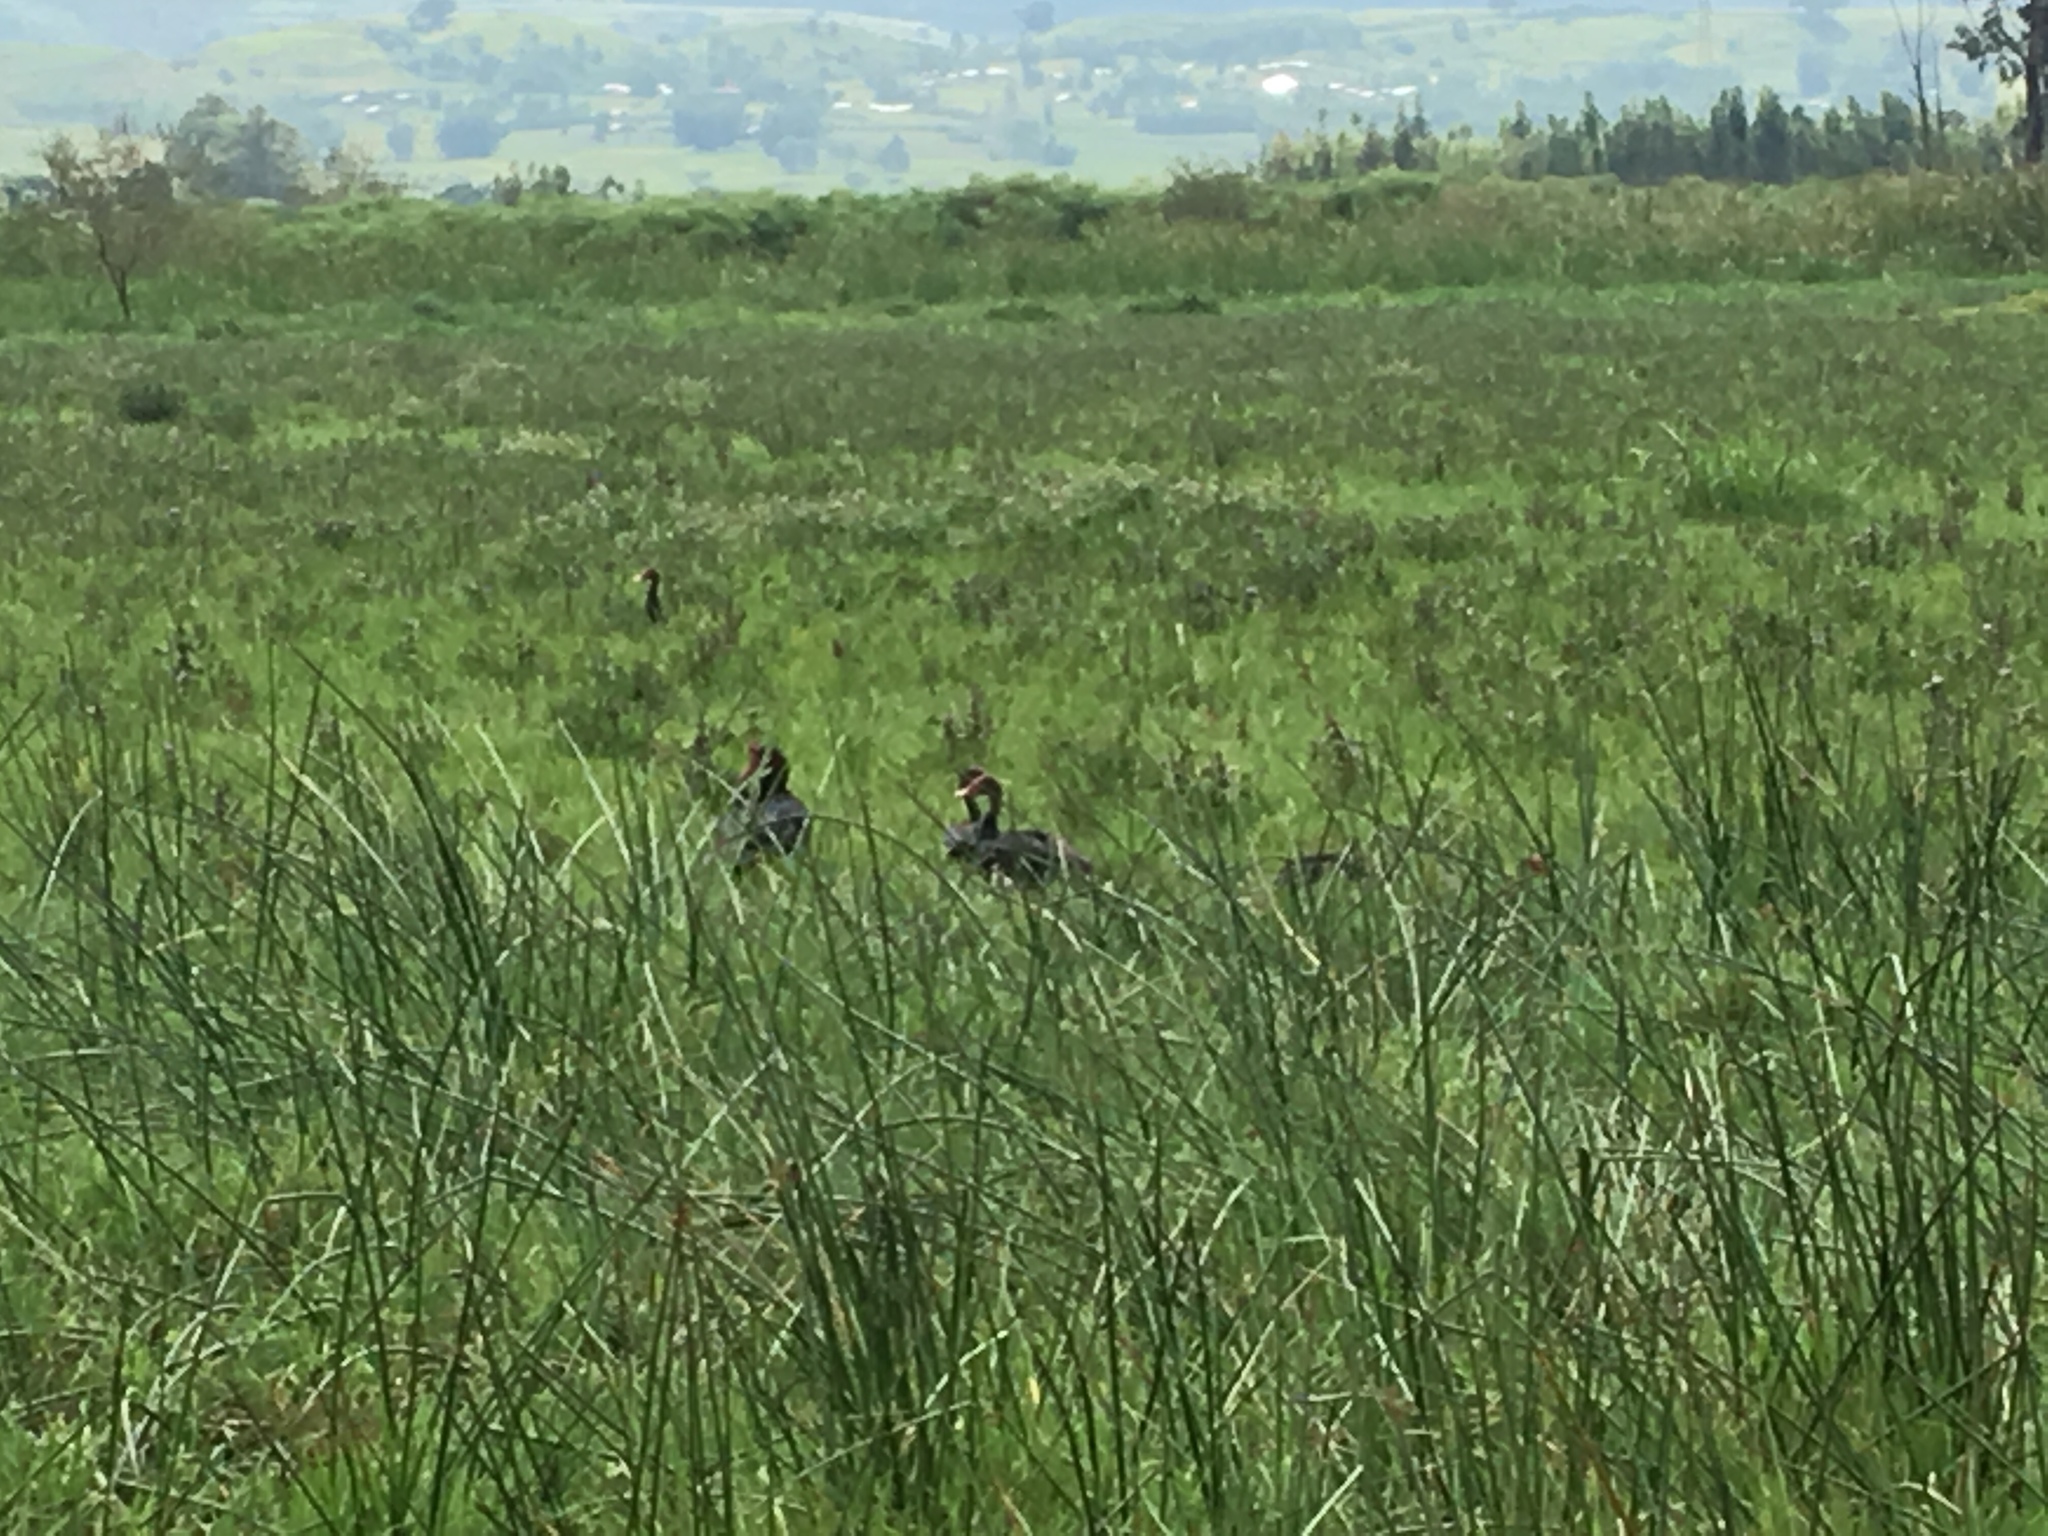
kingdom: Animalia
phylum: Chordata
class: Aves
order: Anseriformes
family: Anatidae
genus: Plectropterus
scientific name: Plectropterus gambensis
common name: Spur-winged goose
